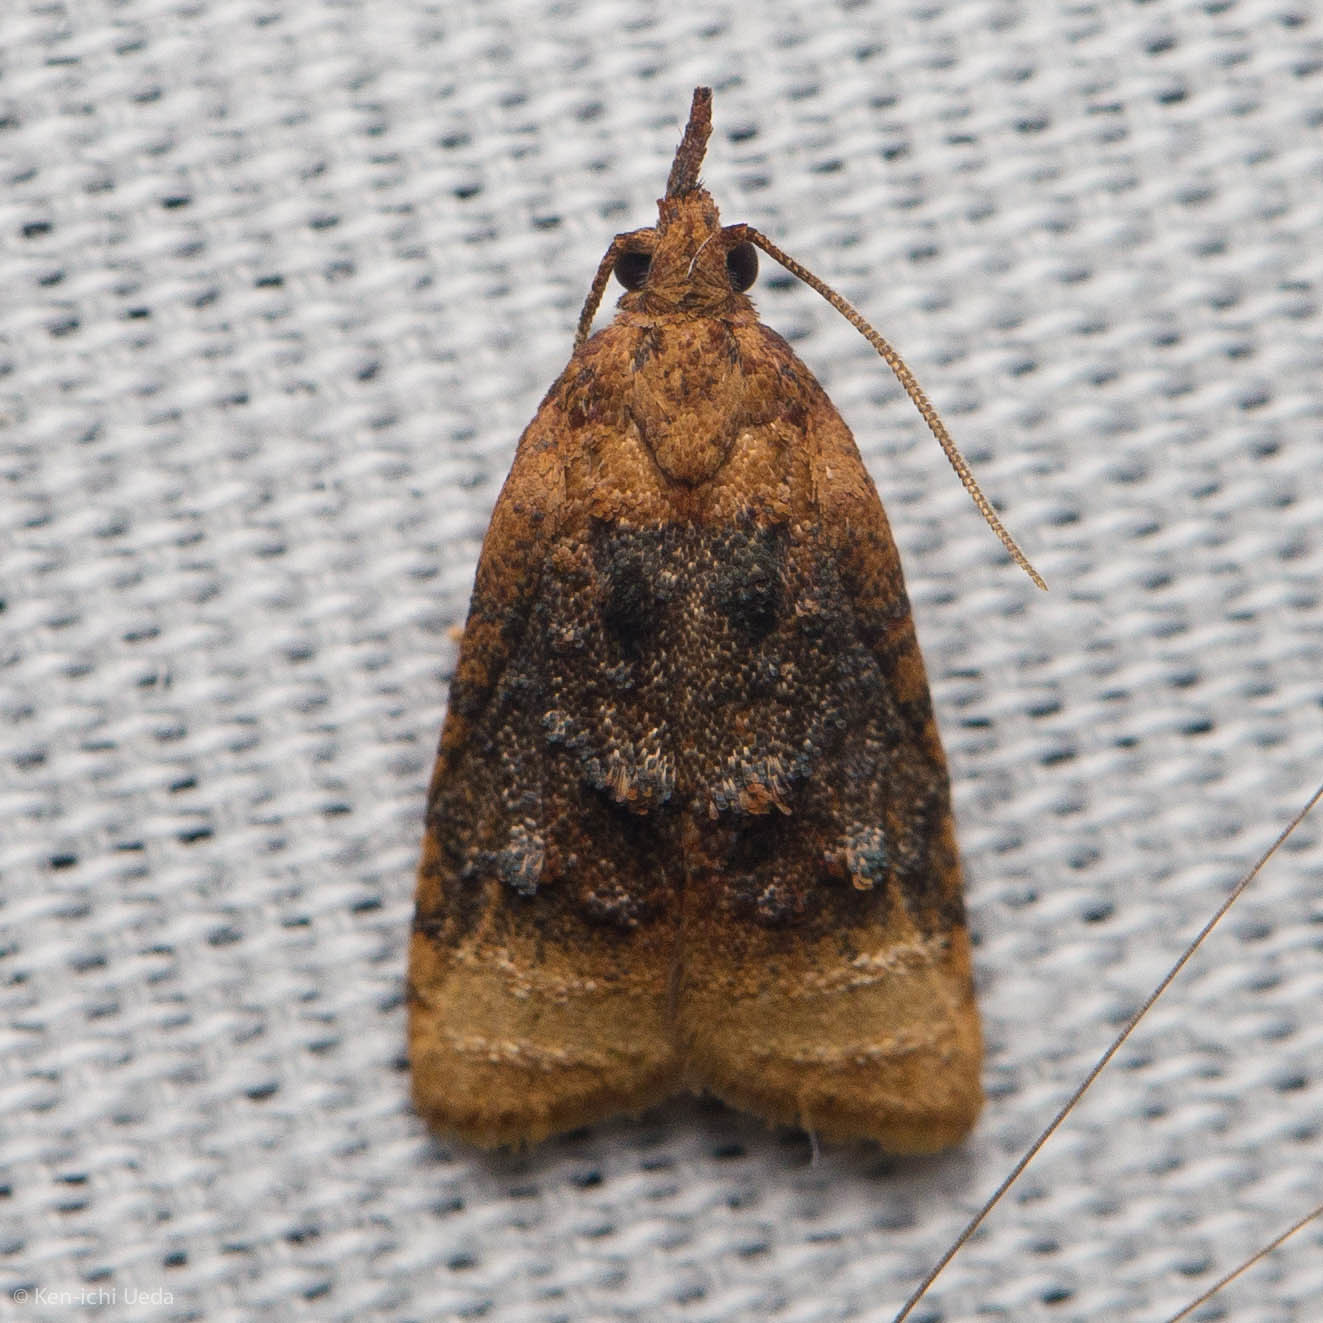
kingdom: Animalia
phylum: Arthropoda
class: Insecta
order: Lepidoptera
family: Tortricidae
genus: Platynota
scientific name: Platynota flavedana
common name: Black-shaded platynota moth
